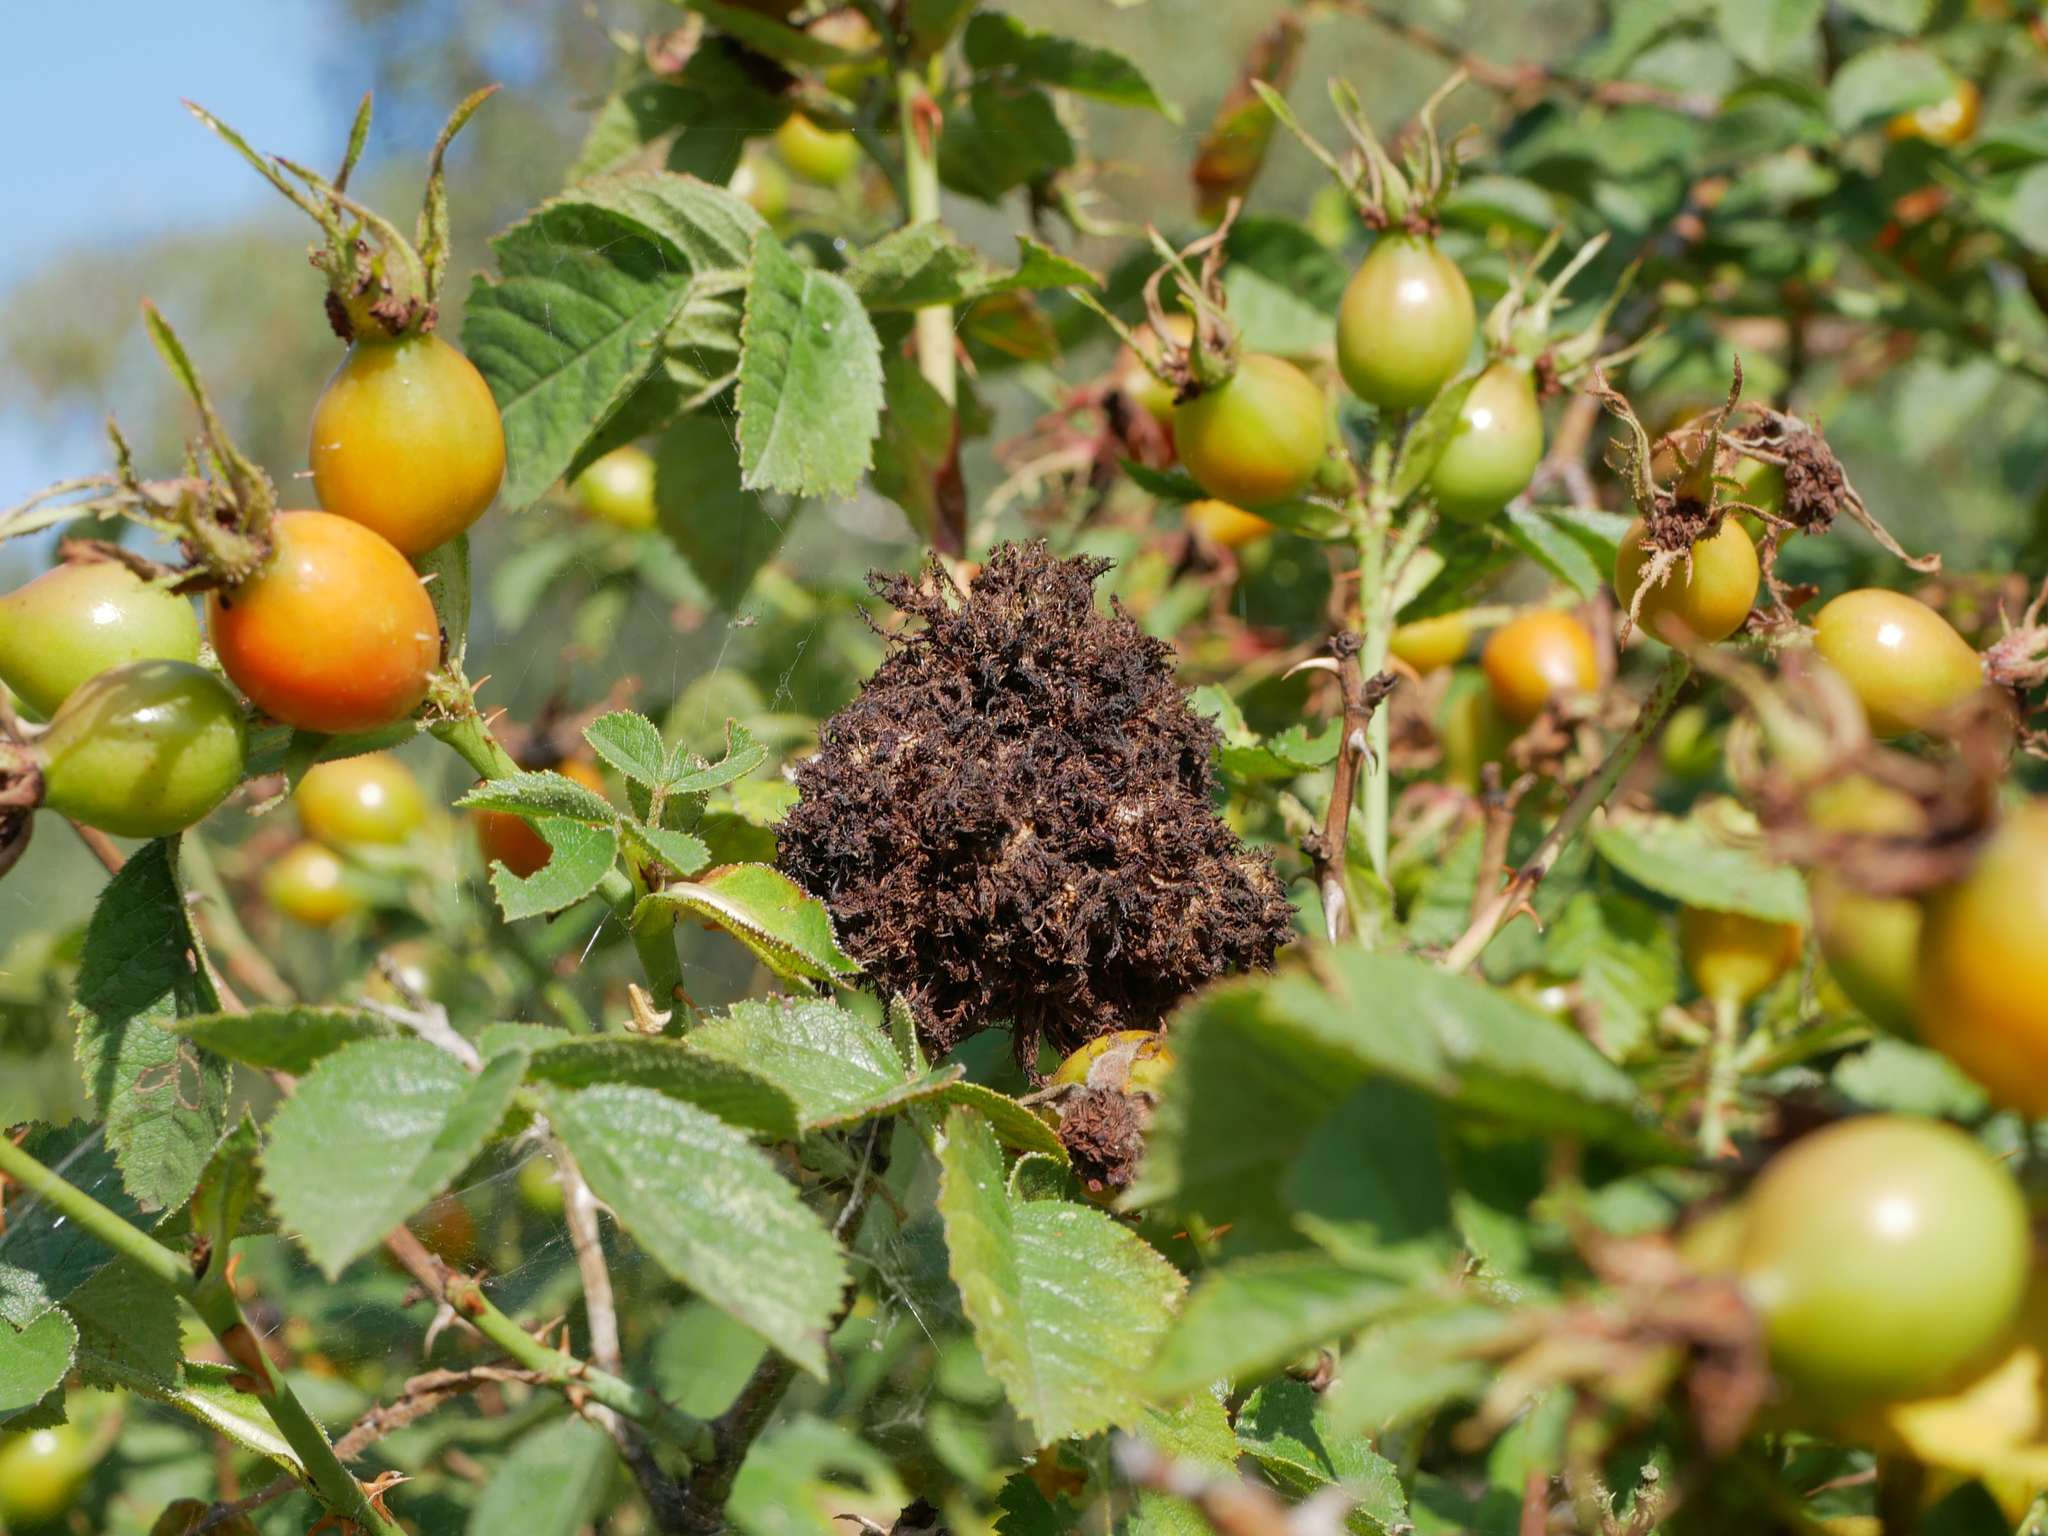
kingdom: Animalia
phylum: Arthropoda
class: Insecta
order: Hymenoptera
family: Cynipidae
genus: Diplolepis
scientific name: Diplolepis rosae
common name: Bedeguar gall
